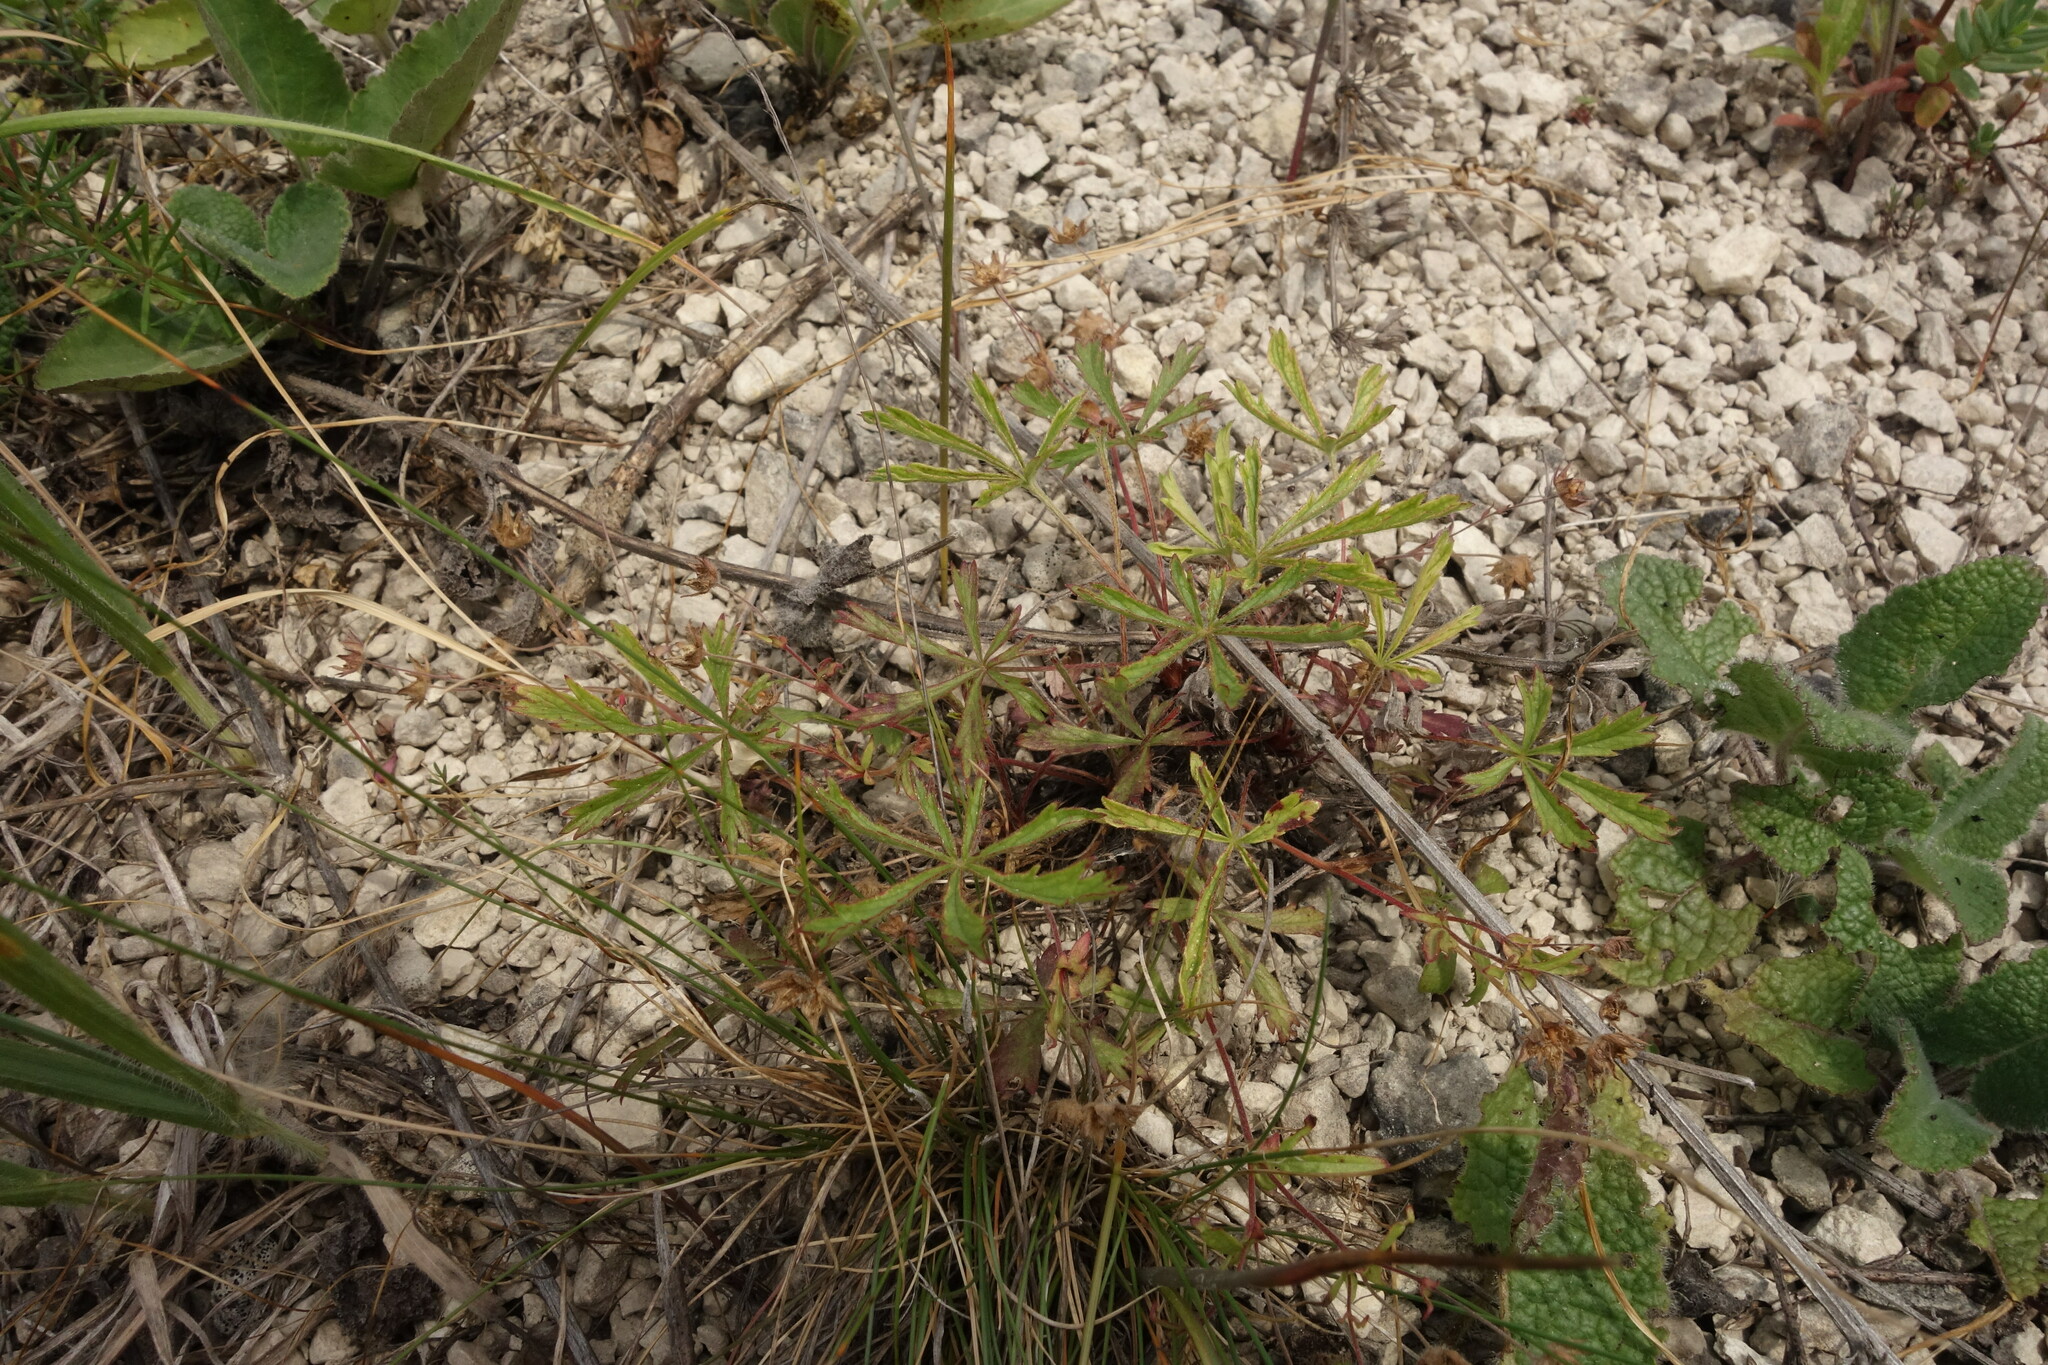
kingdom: Plantae
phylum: Tracheophyta
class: Magnoliopsida
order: Rosales
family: Rosaceae
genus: Potentilla
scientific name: Potentilla humifusa
